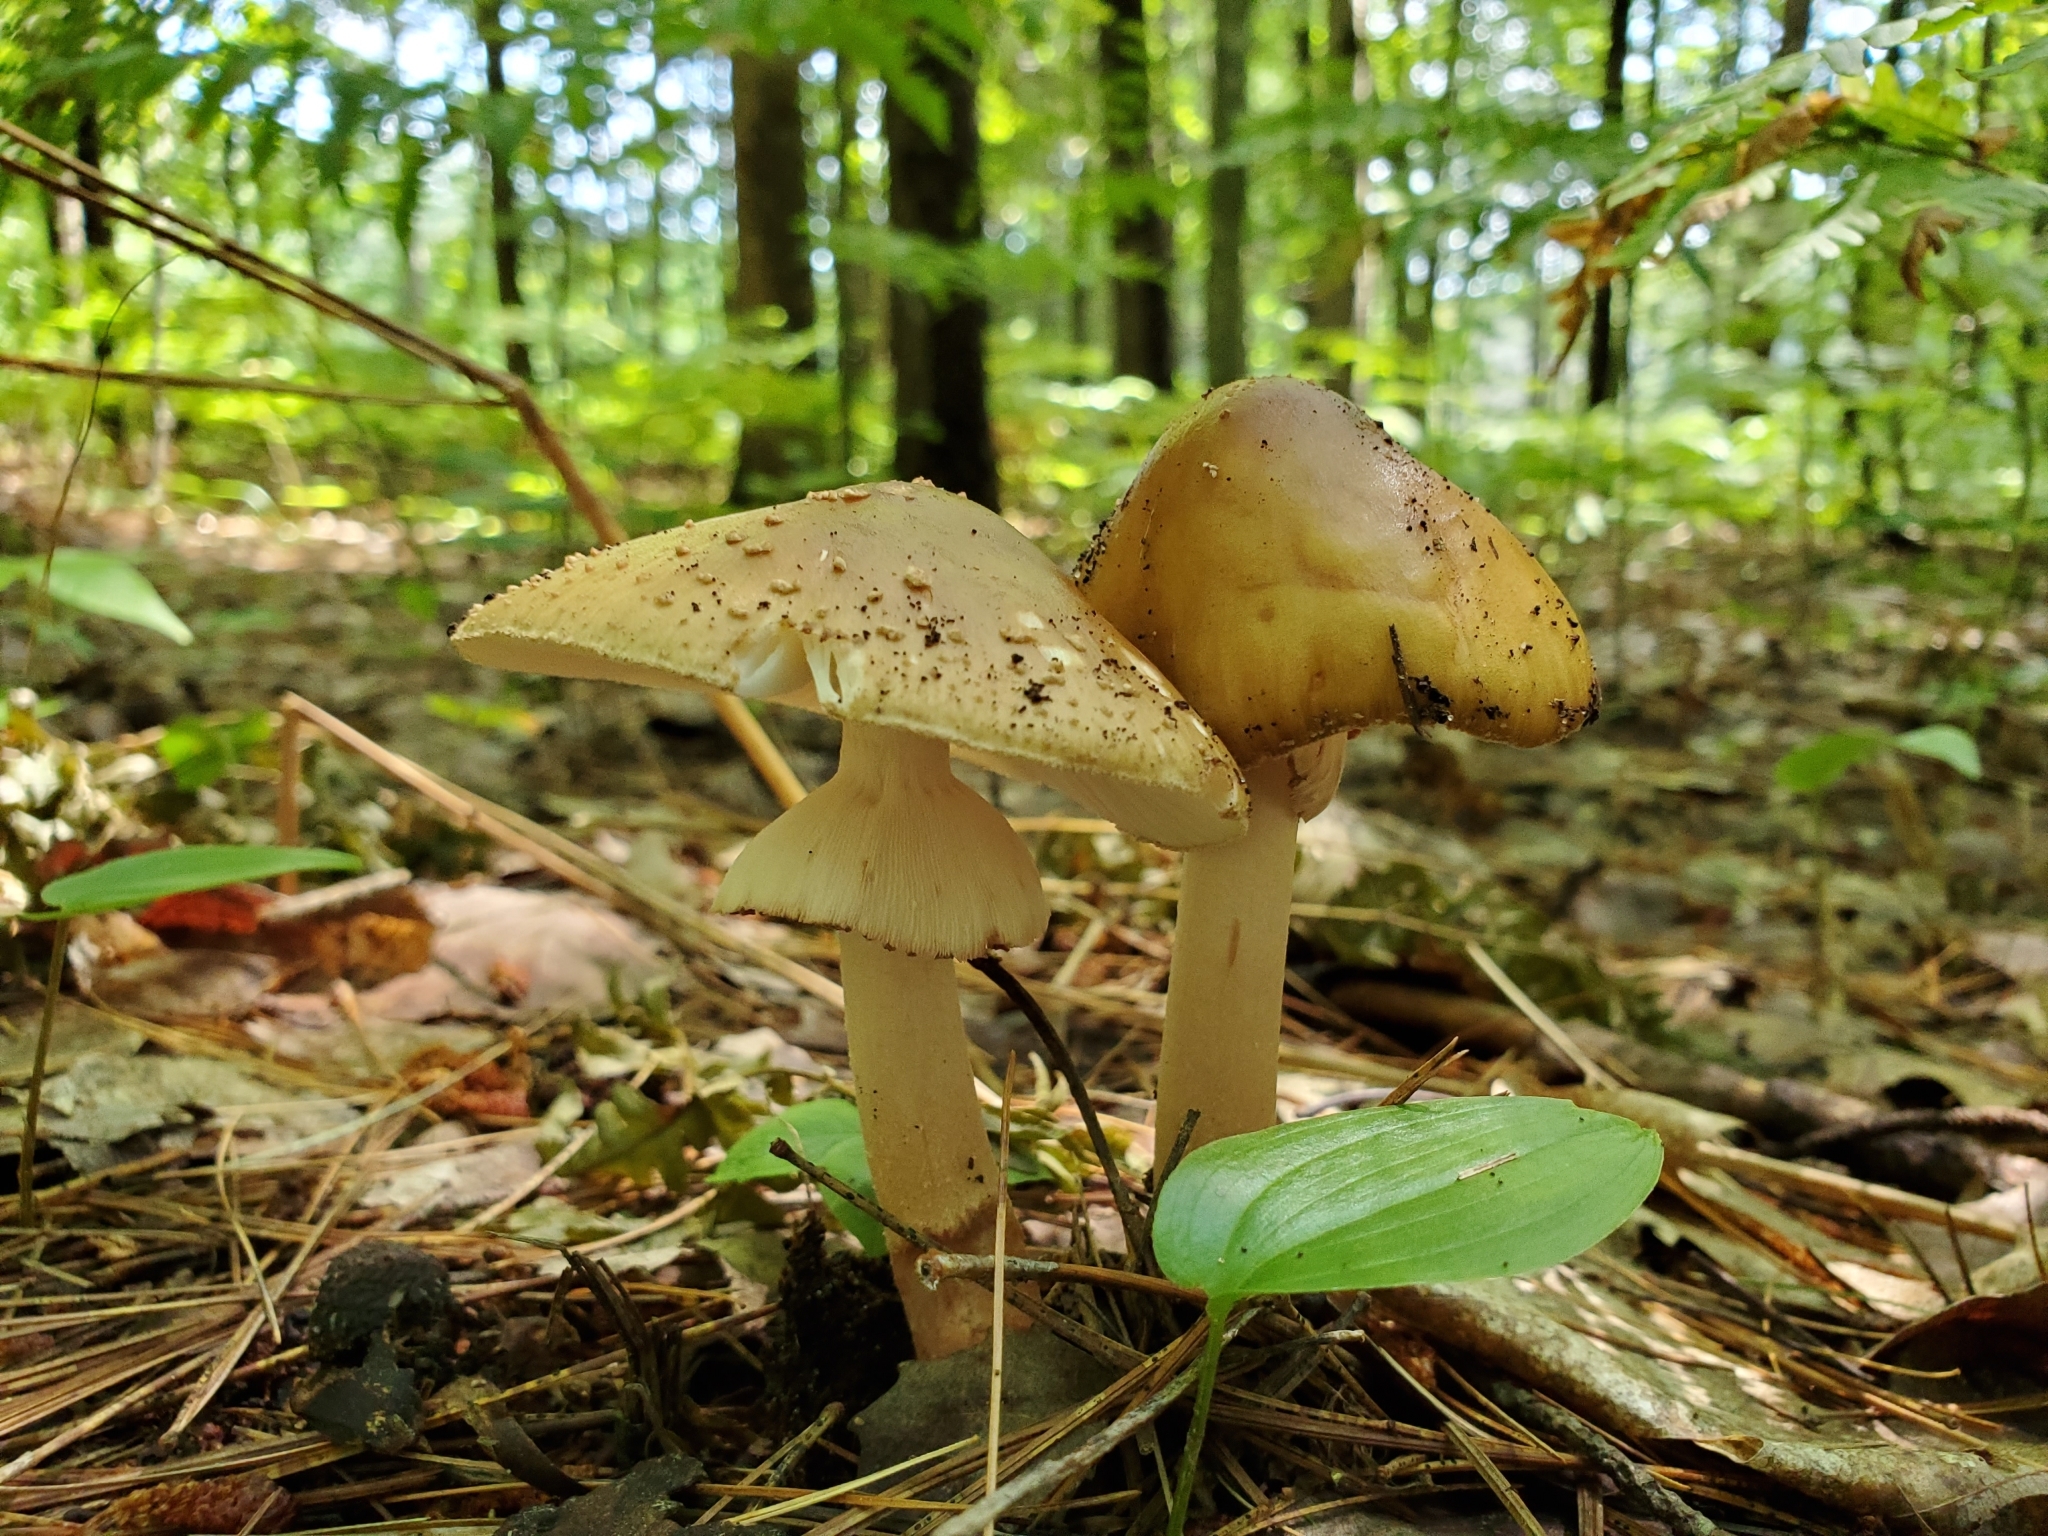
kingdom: Fungi
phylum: Basidiomycota
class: Agaricomycetes
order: Agaricales
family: Amanitaceae
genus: Amanita
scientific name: Amanita brunnescens
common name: Brown american star-footed amanita
